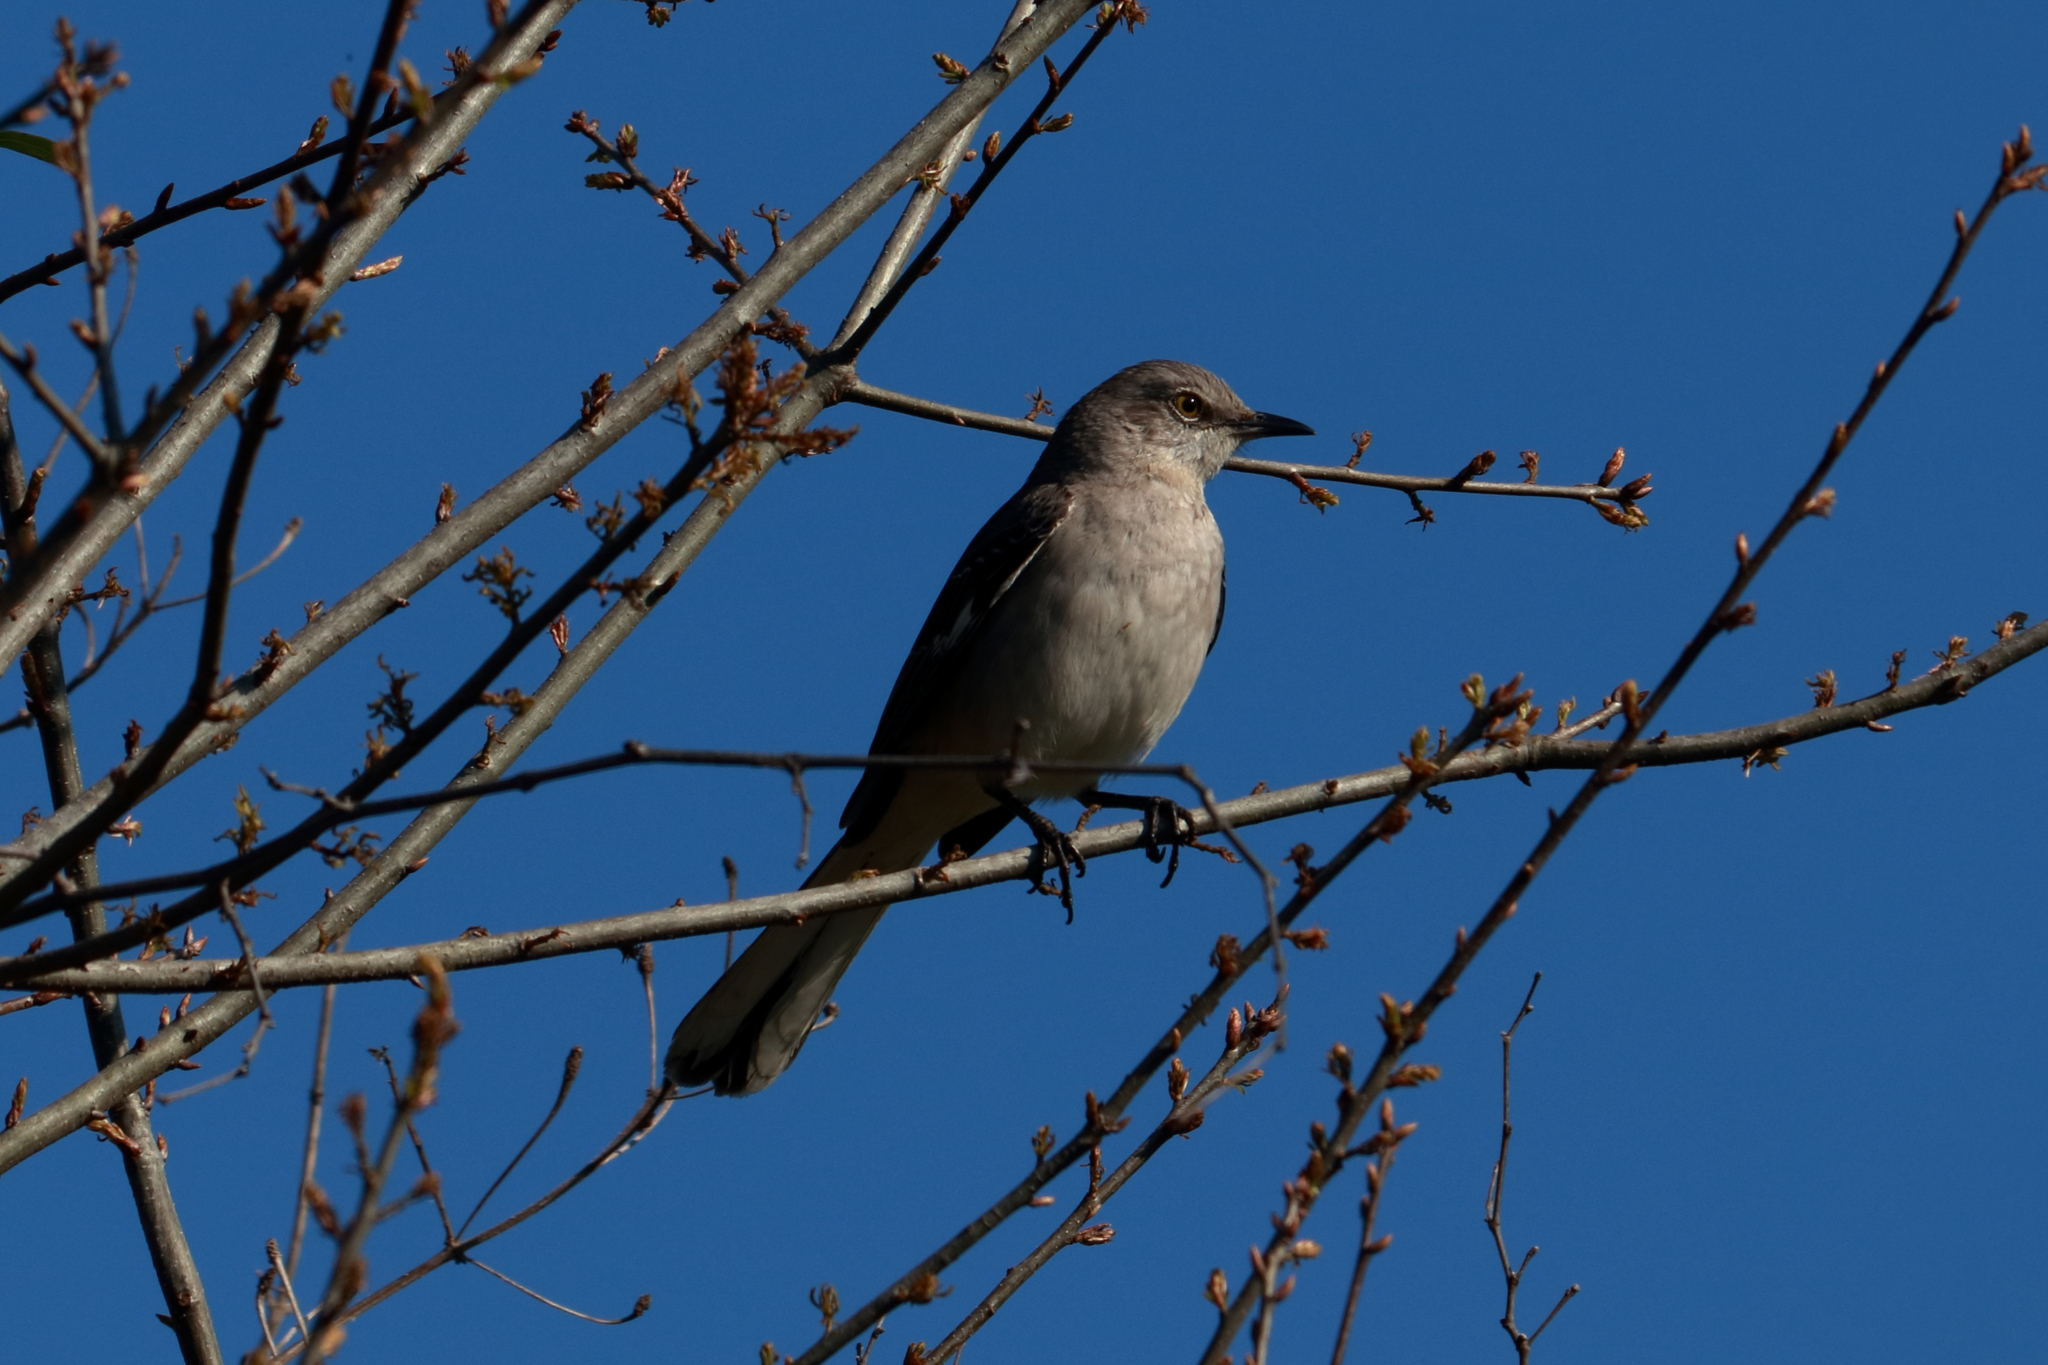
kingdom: Animalia
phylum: Chordata
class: Aves
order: Passeriformes
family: Mimidae
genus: Mimus
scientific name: Mimus polyglottos
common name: Northern mockingbird
